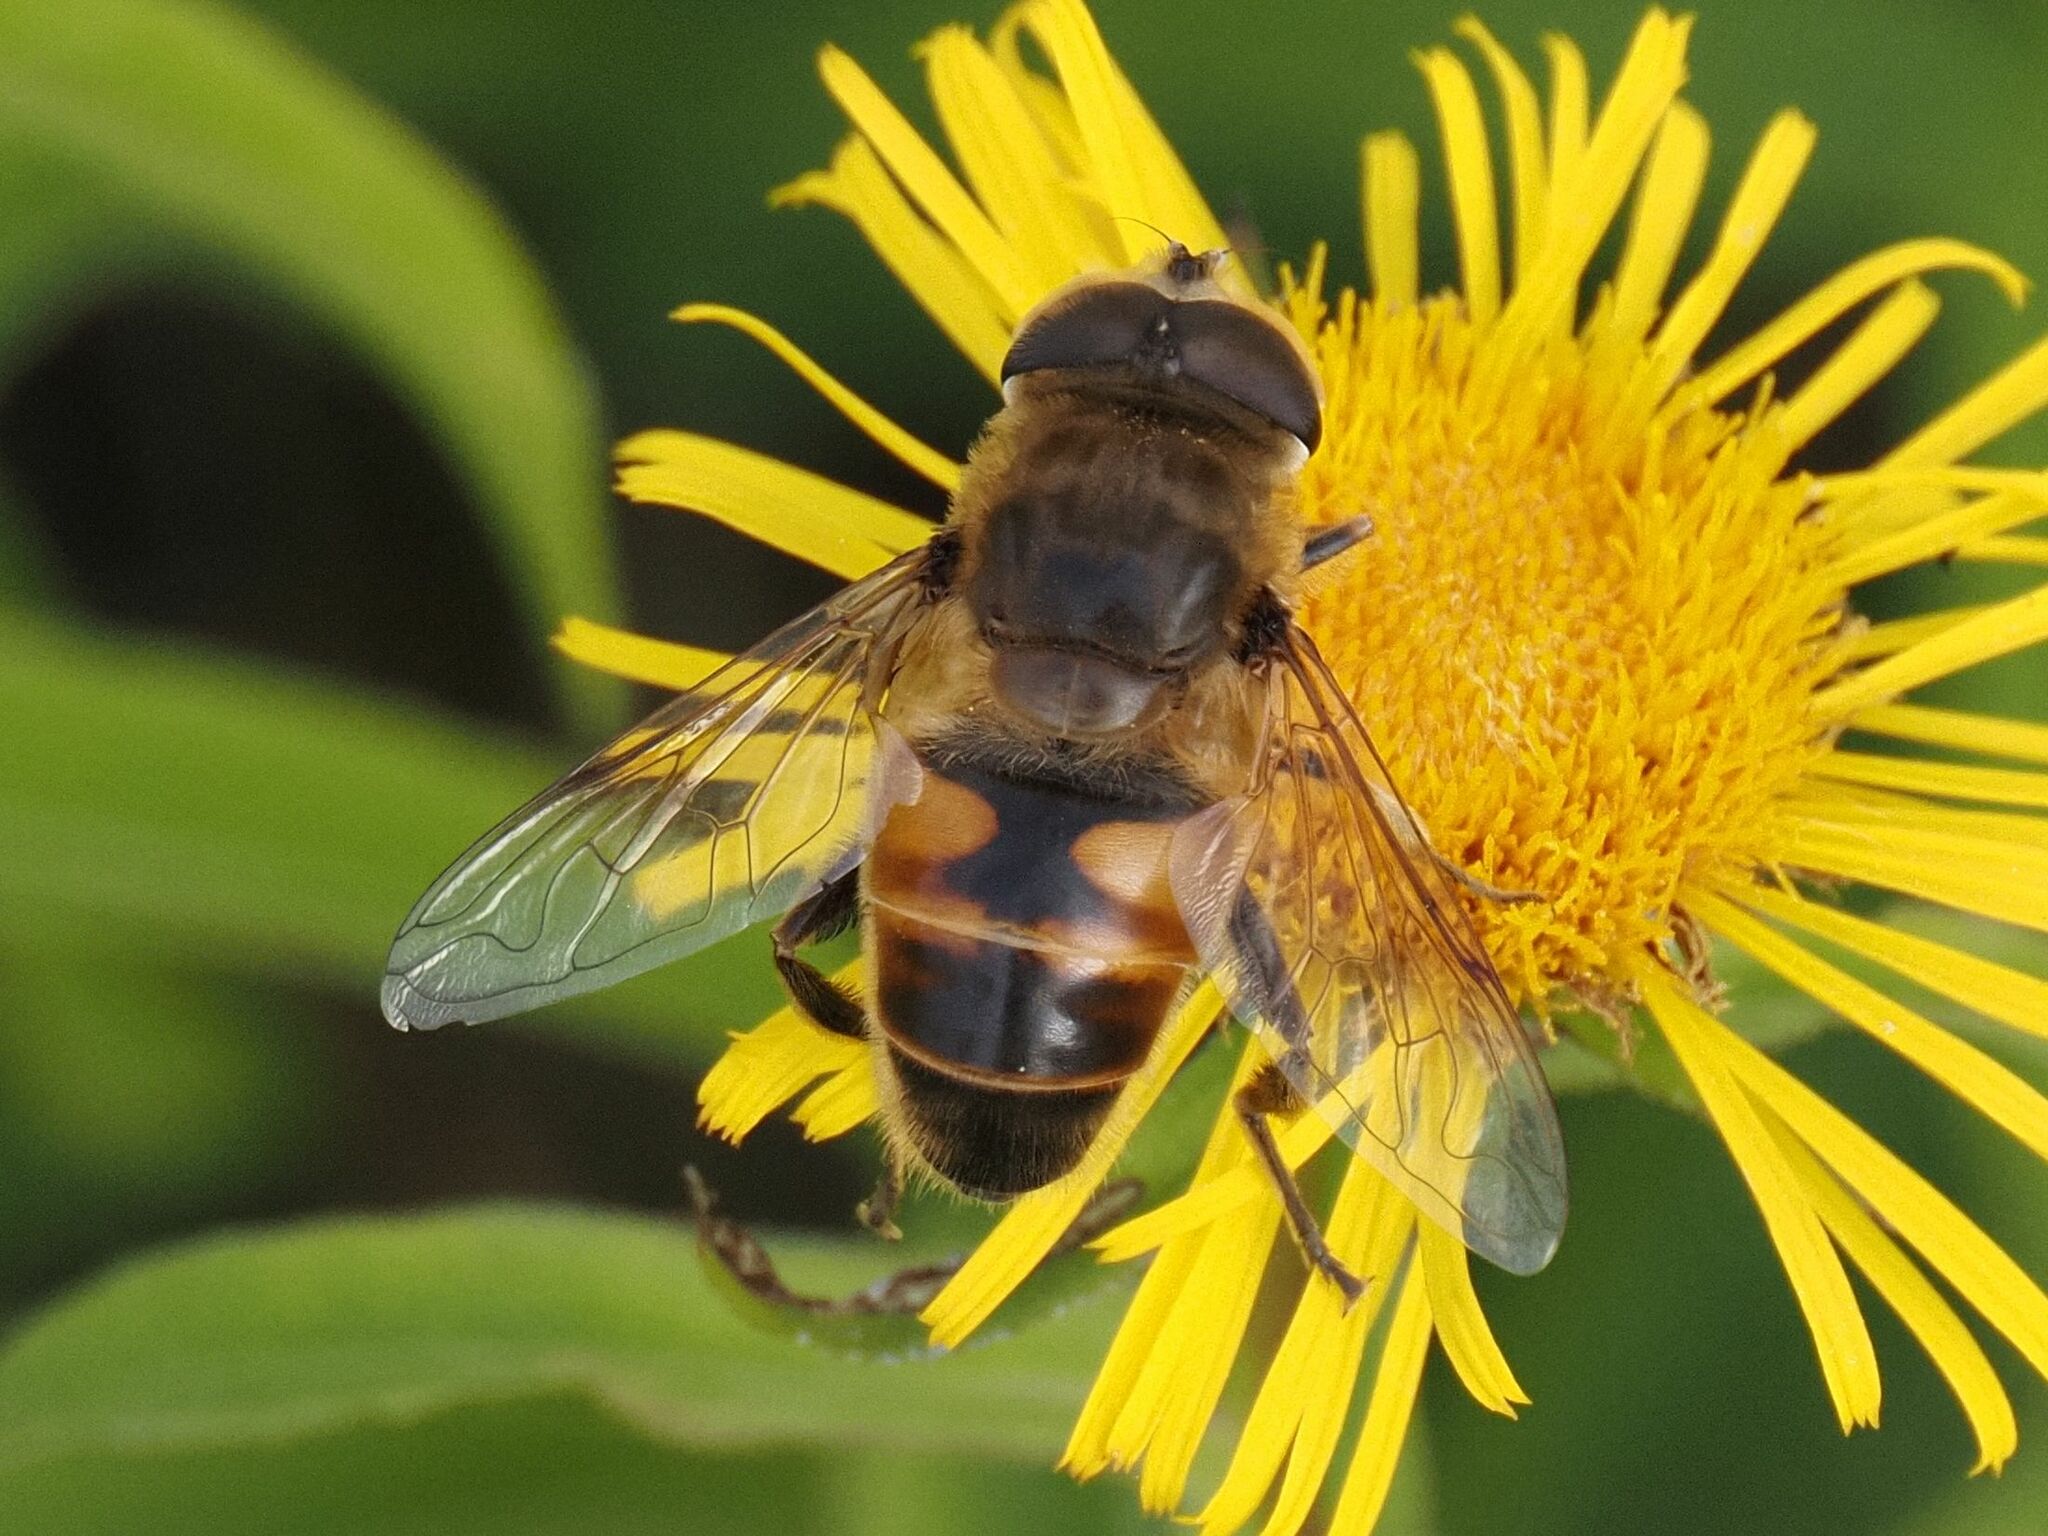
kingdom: Animalia
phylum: Arthropoda
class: Insecta
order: Diptera
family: Syrphidae
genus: Eristalis
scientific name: Eristalis tenax
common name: Drone fly
